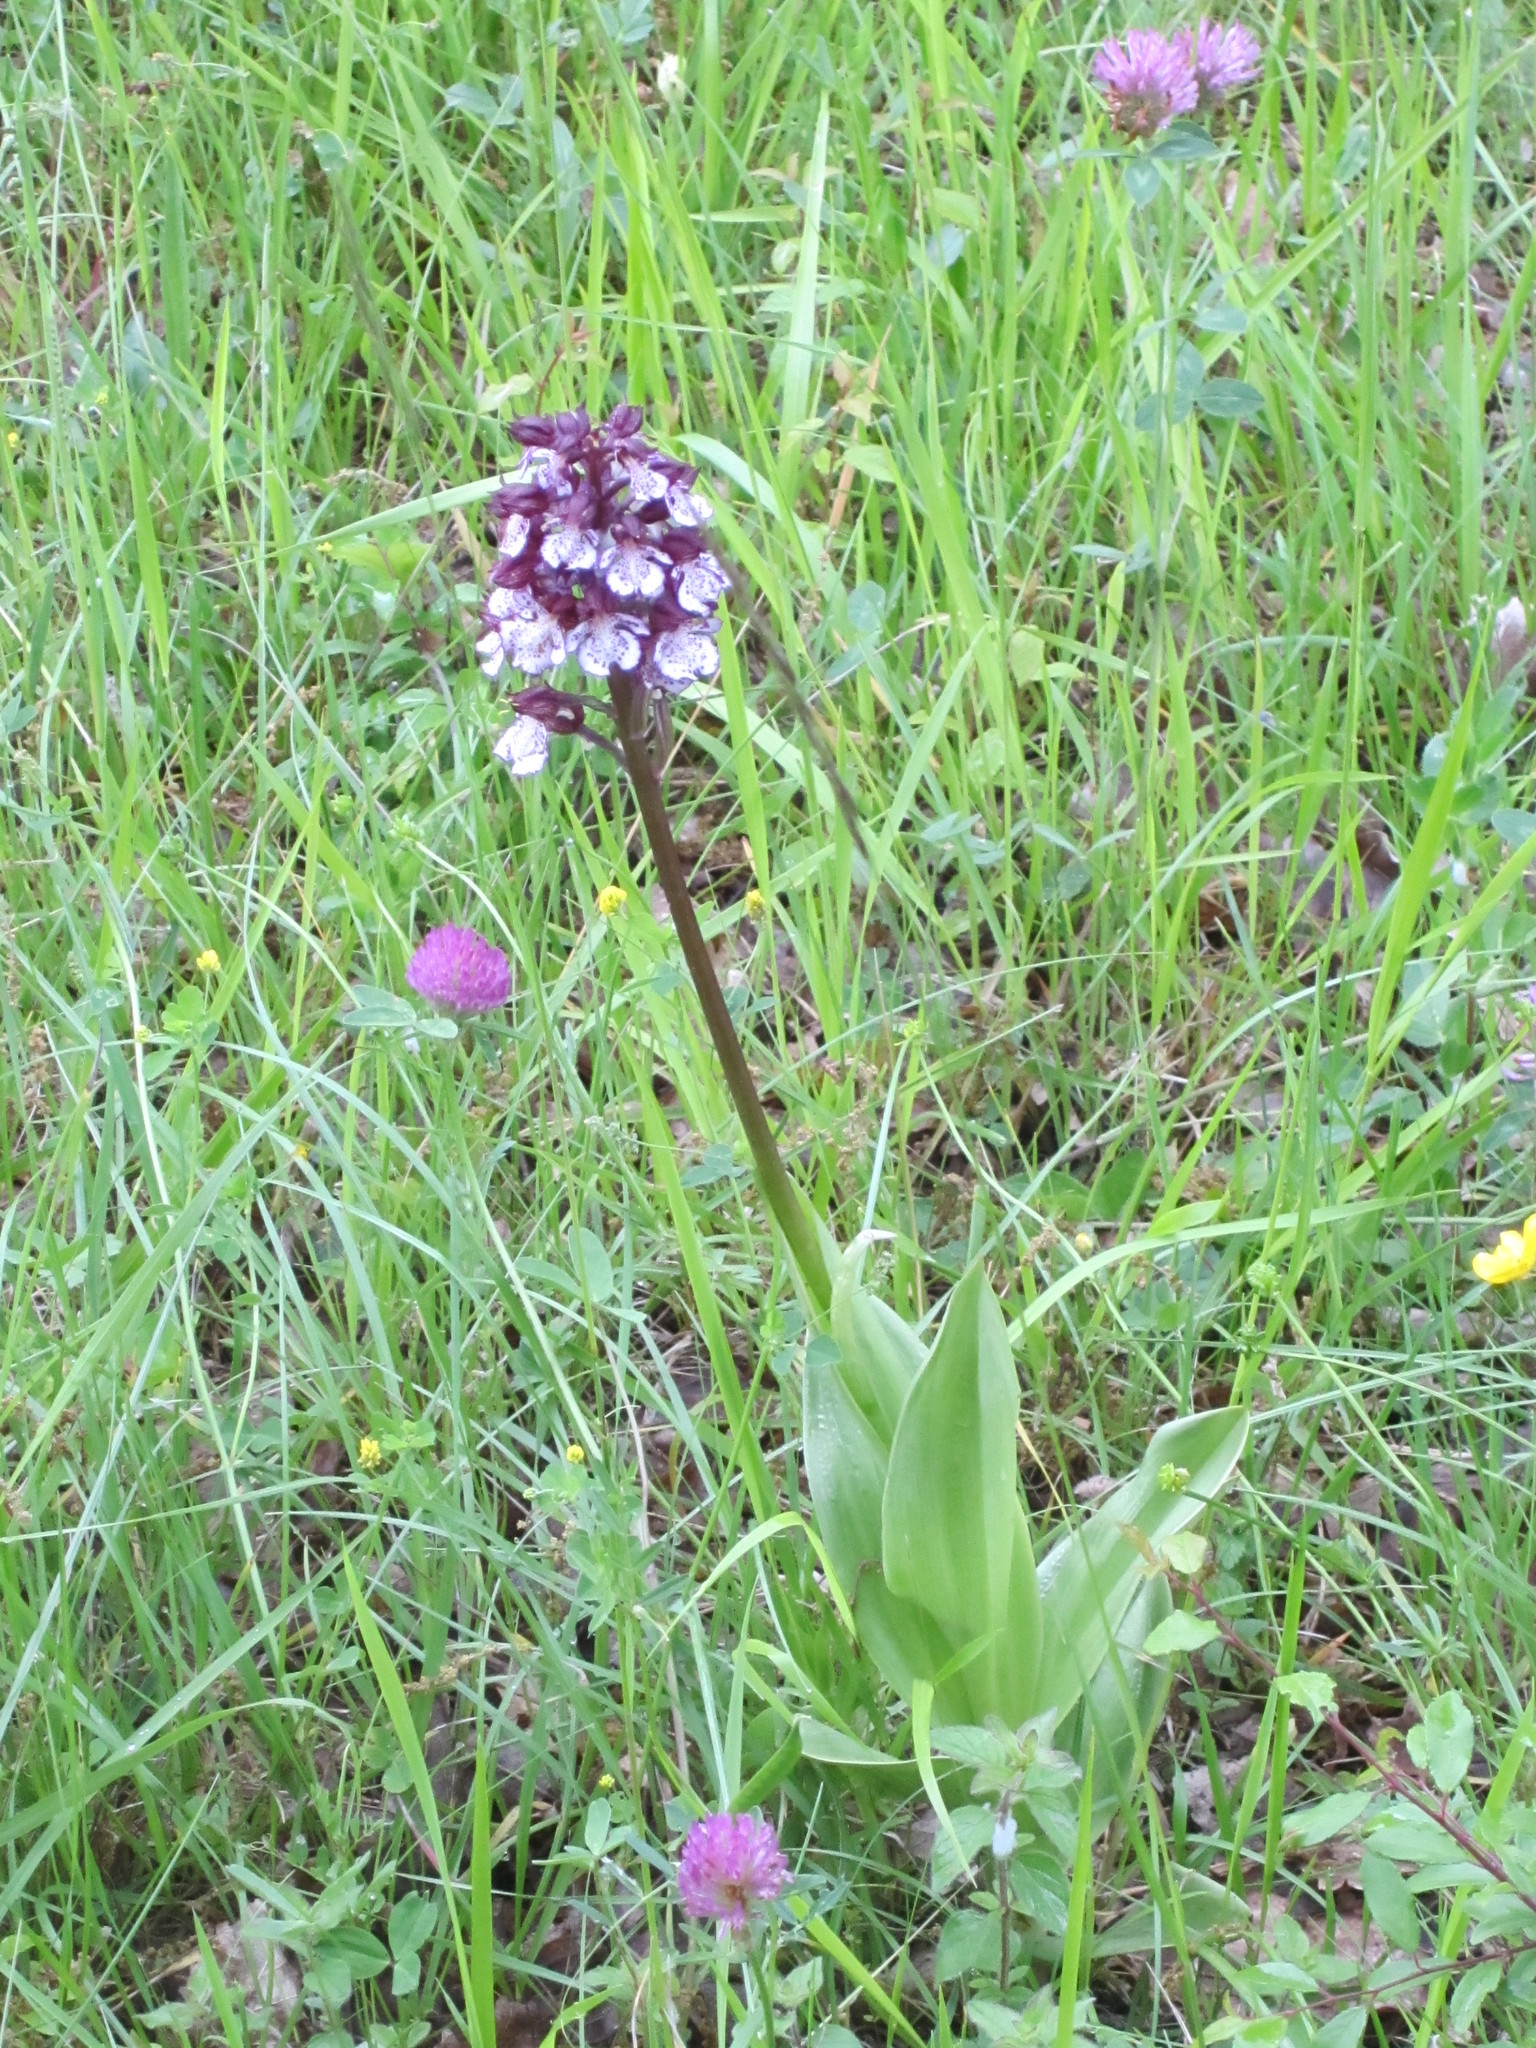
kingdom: Plantae
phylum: Tracheophyta
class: Liliopsida
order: Asparagales
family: Orchidaceae
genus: Orchis
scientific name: Orchis purpurea
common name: Lady orchid
